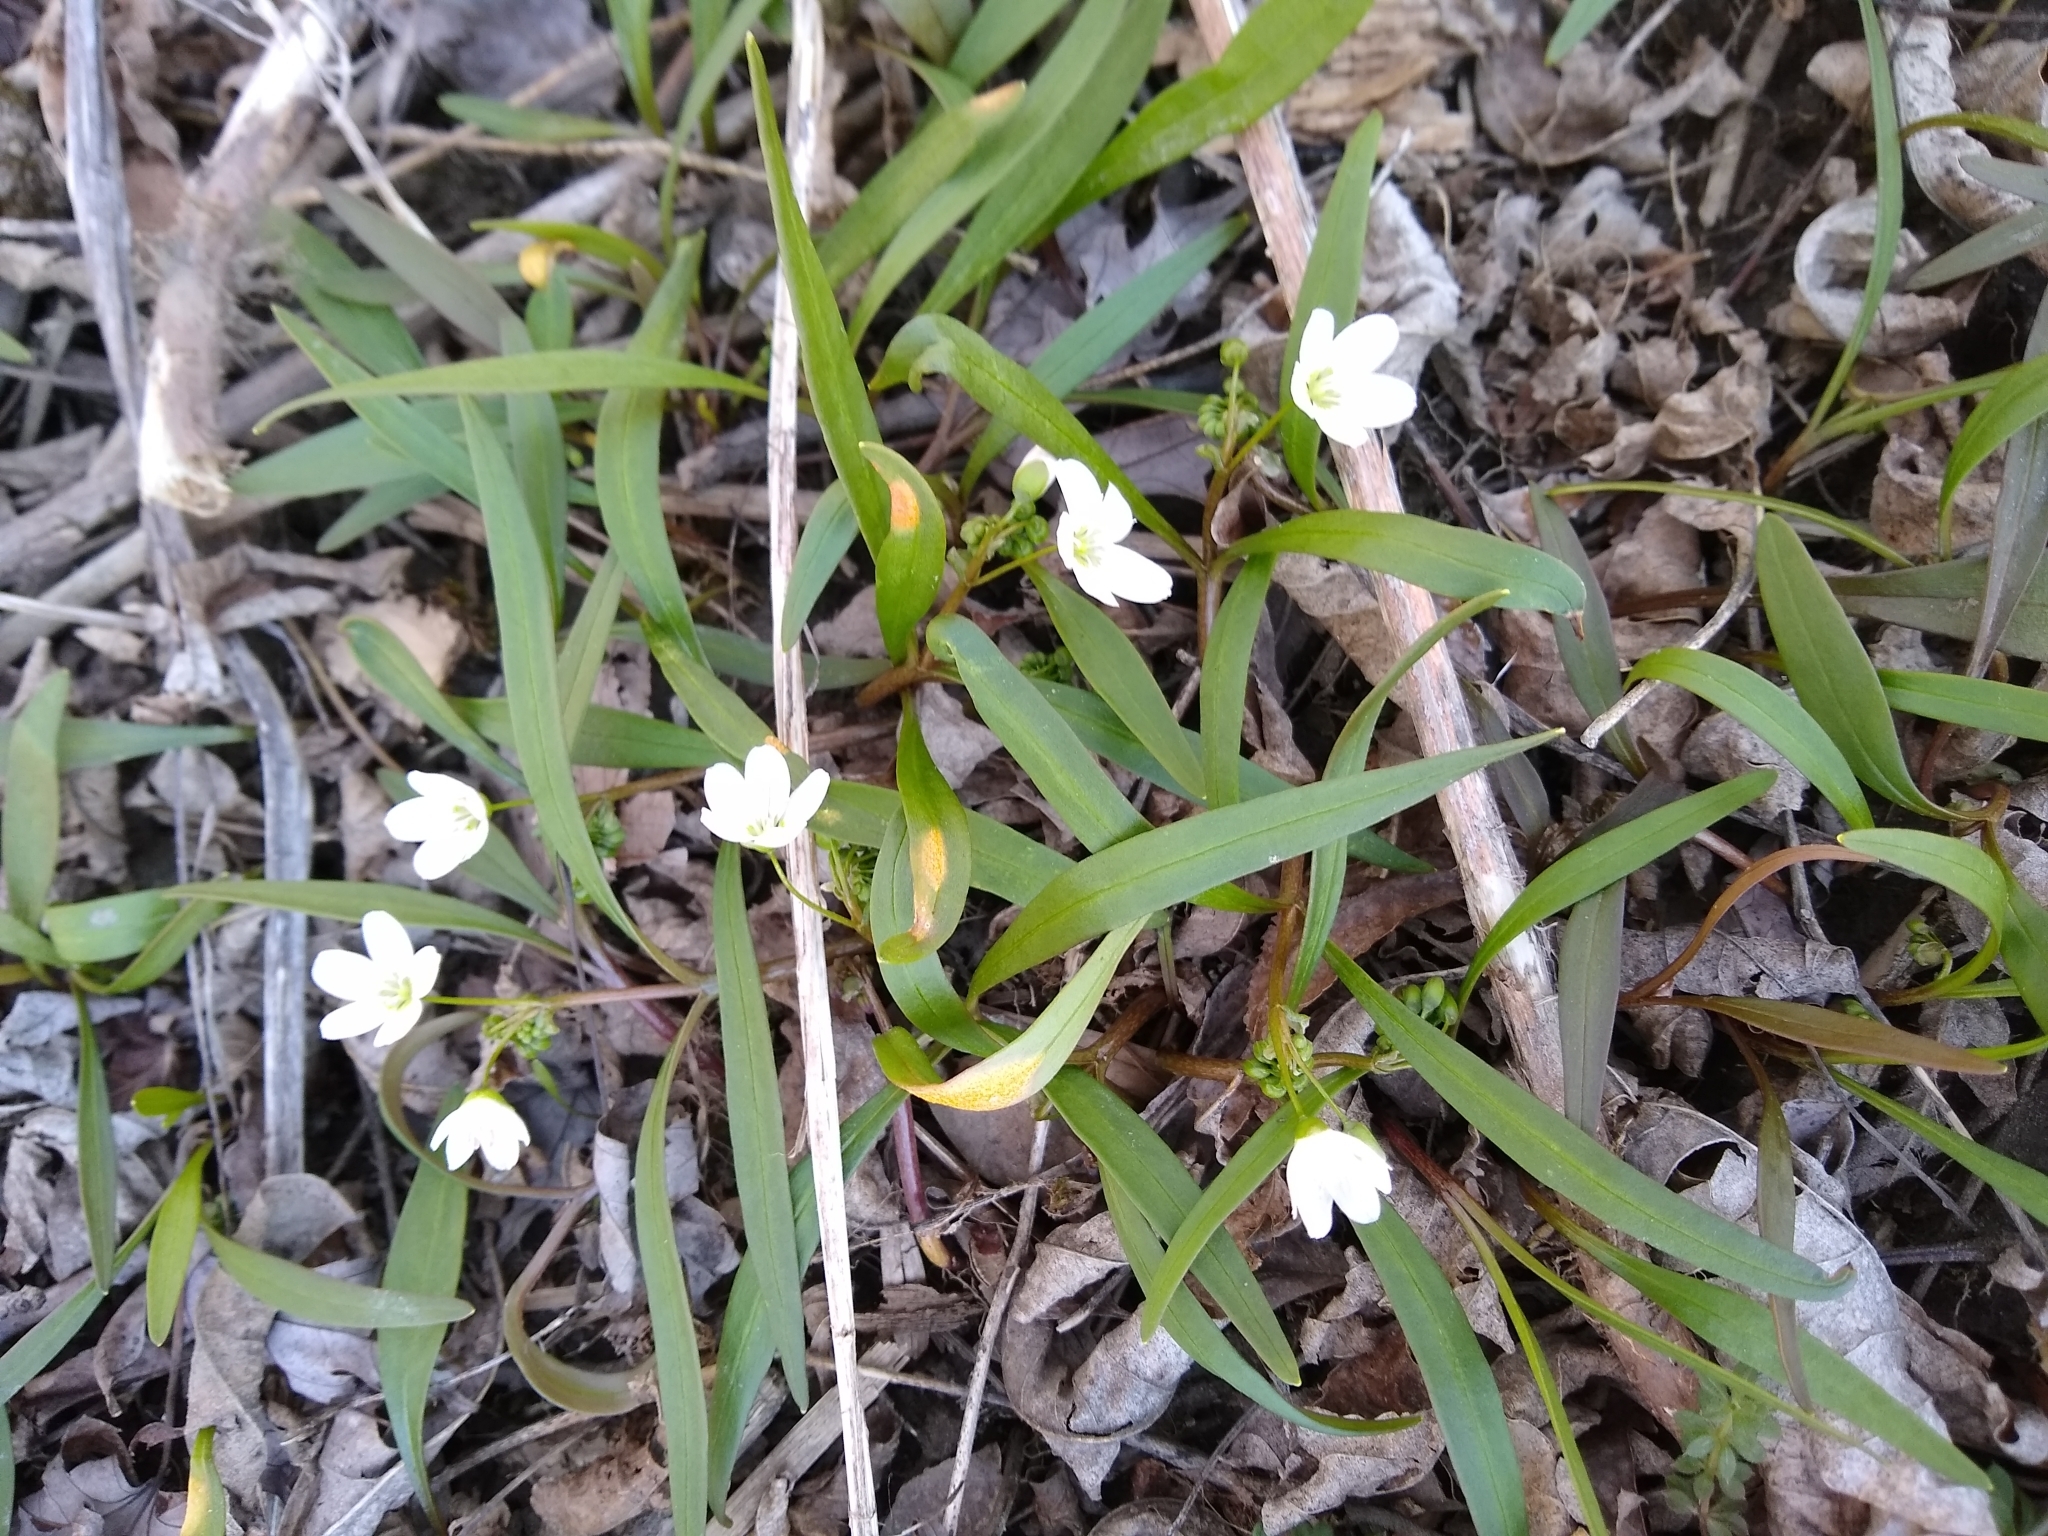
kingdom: Plantae
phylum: Tracheophyta
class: Magnoliopsida
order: Caryophyllales
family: Montiaceae
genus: Claytonia
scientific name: Claytonia virginica
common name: Virginia springbeauty
